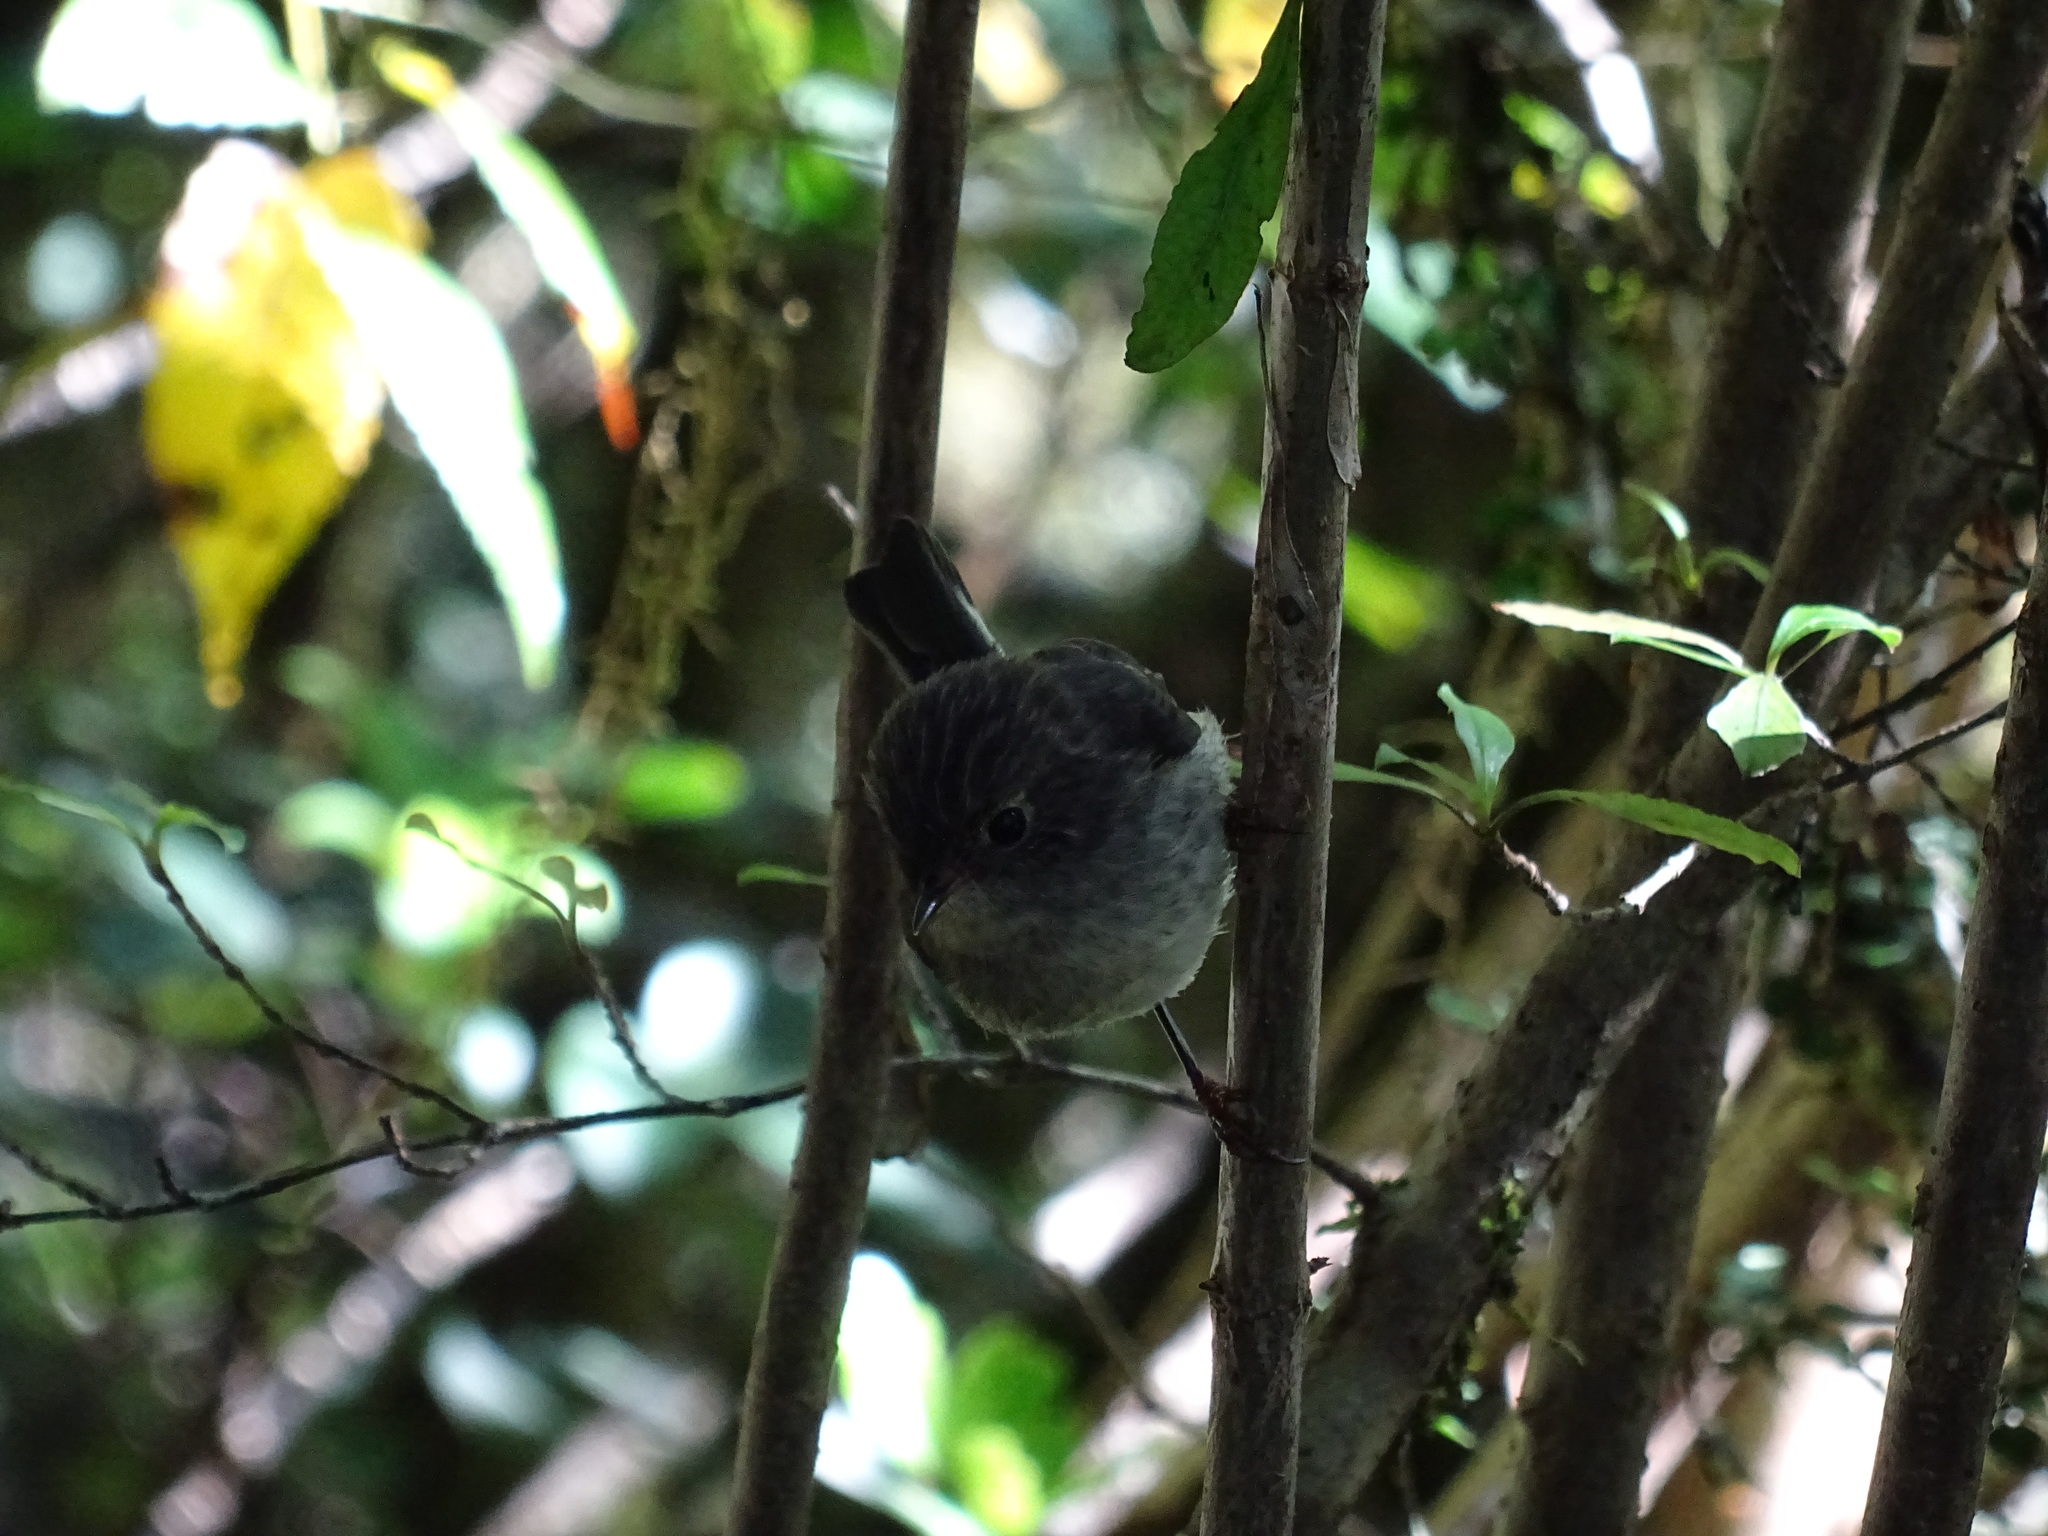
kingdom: Animalia
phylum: Chordata
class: Aves
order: Passeriformes
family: Petroicidae
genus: Petroica
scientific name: Petroica macrocephala
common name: Tomtit
